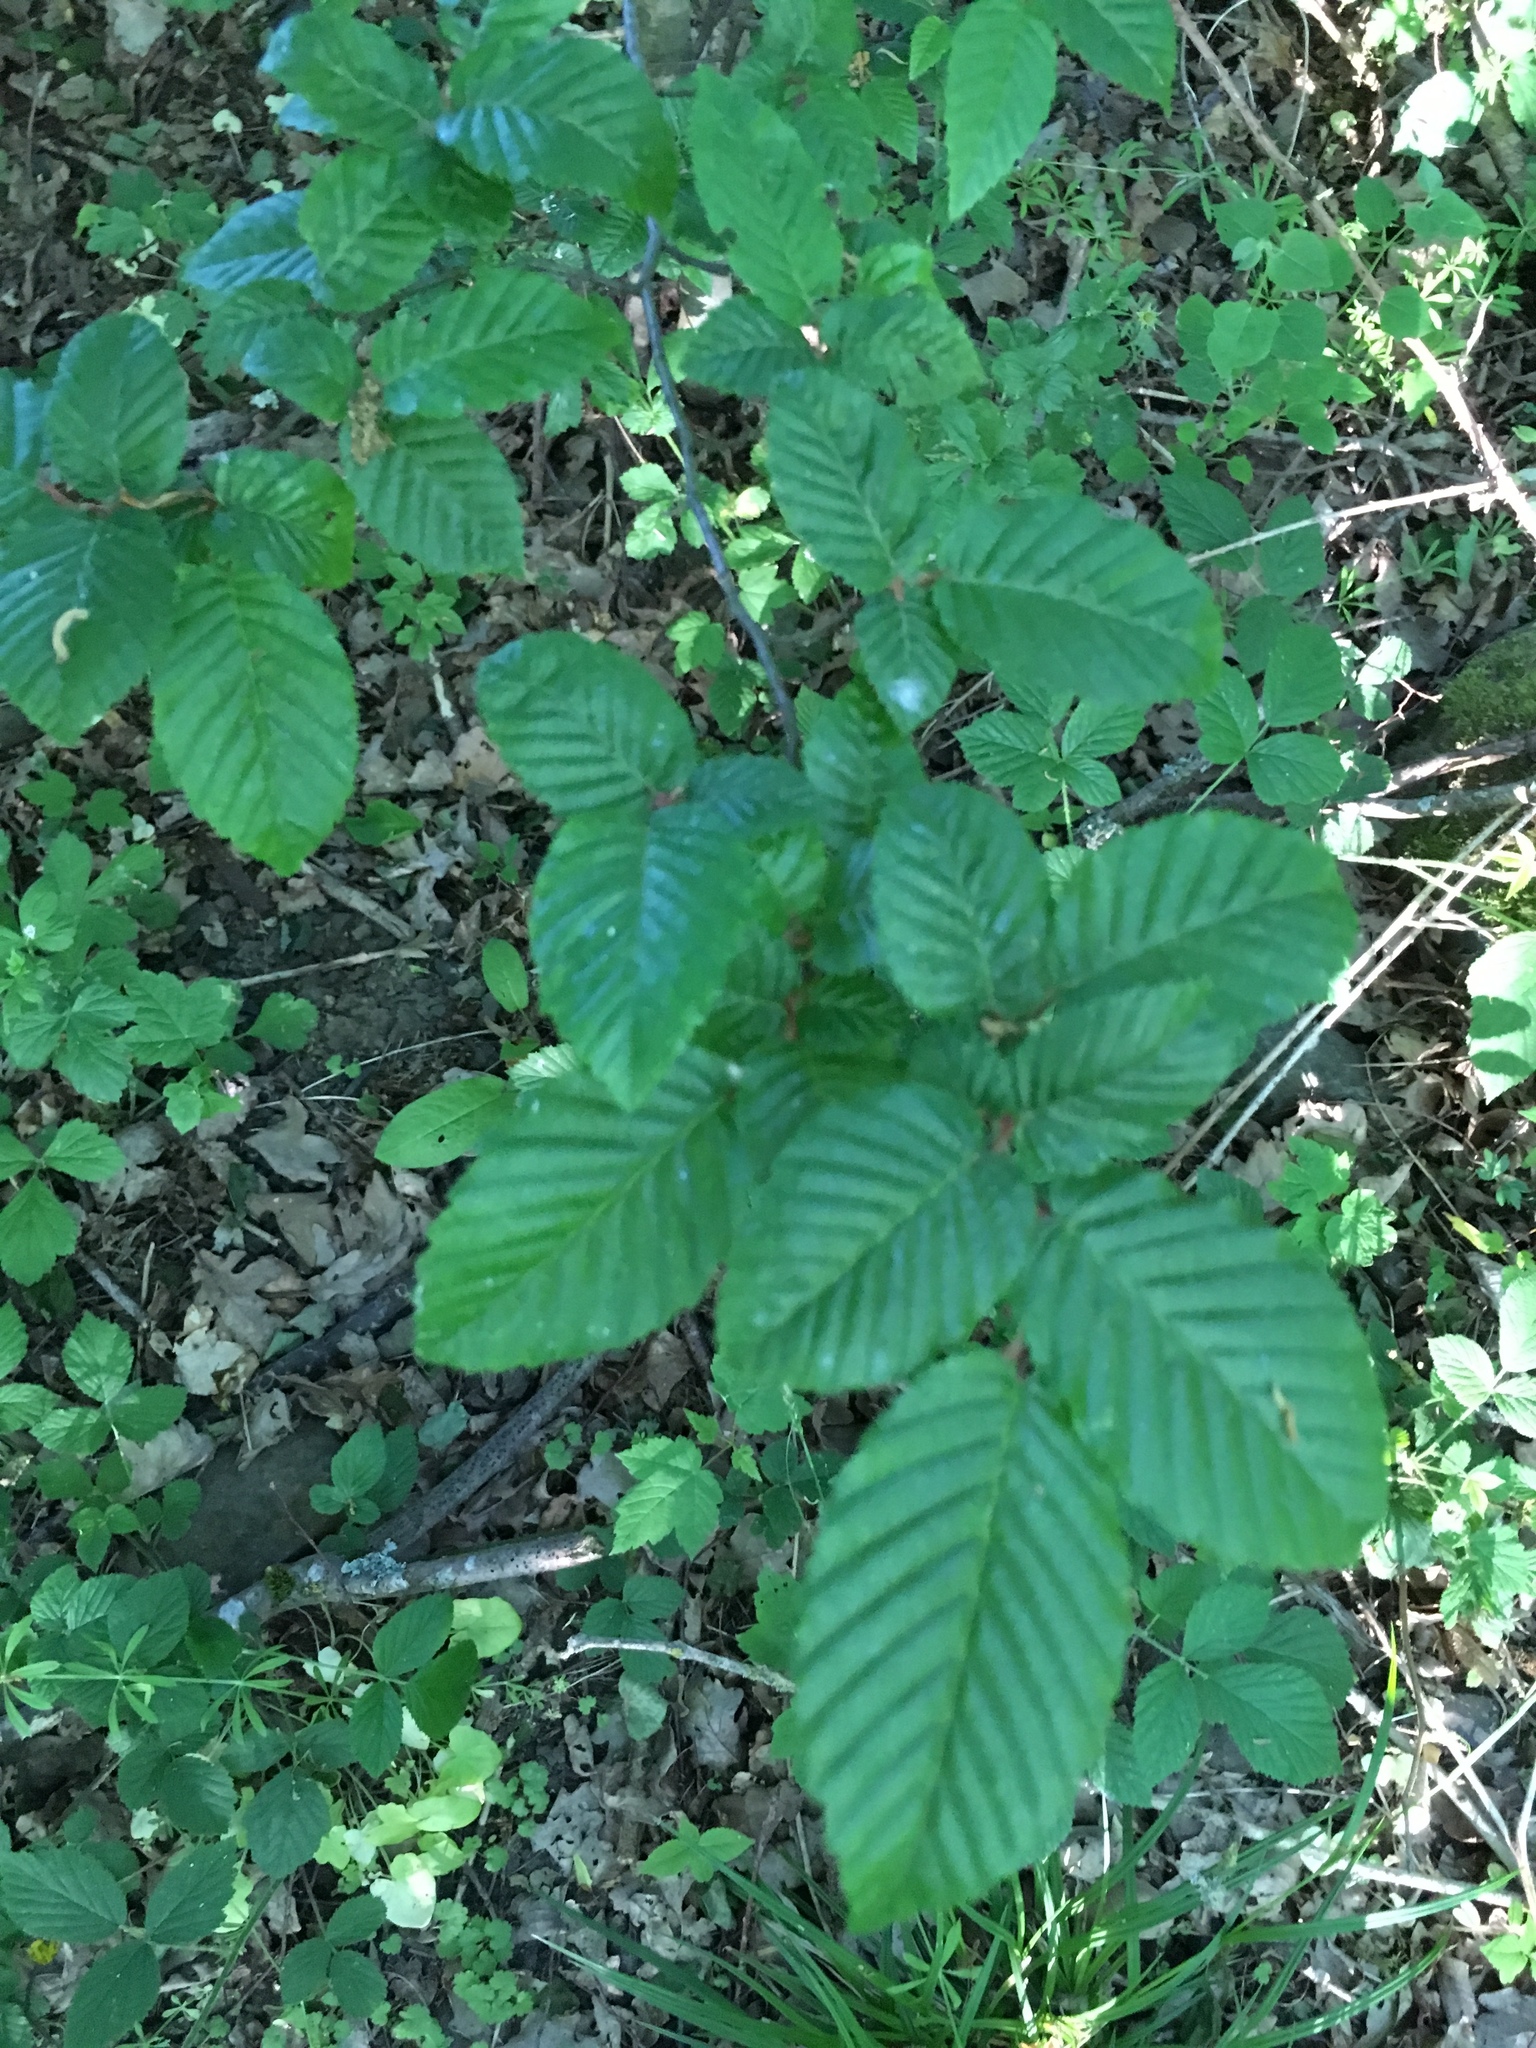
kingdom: Plantae
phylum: Tracheophyta
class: Magnoliopsida
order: Fagales
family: Betulaceae
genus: Carpinus
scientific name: Carpinus betulus
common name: Hornbeam
